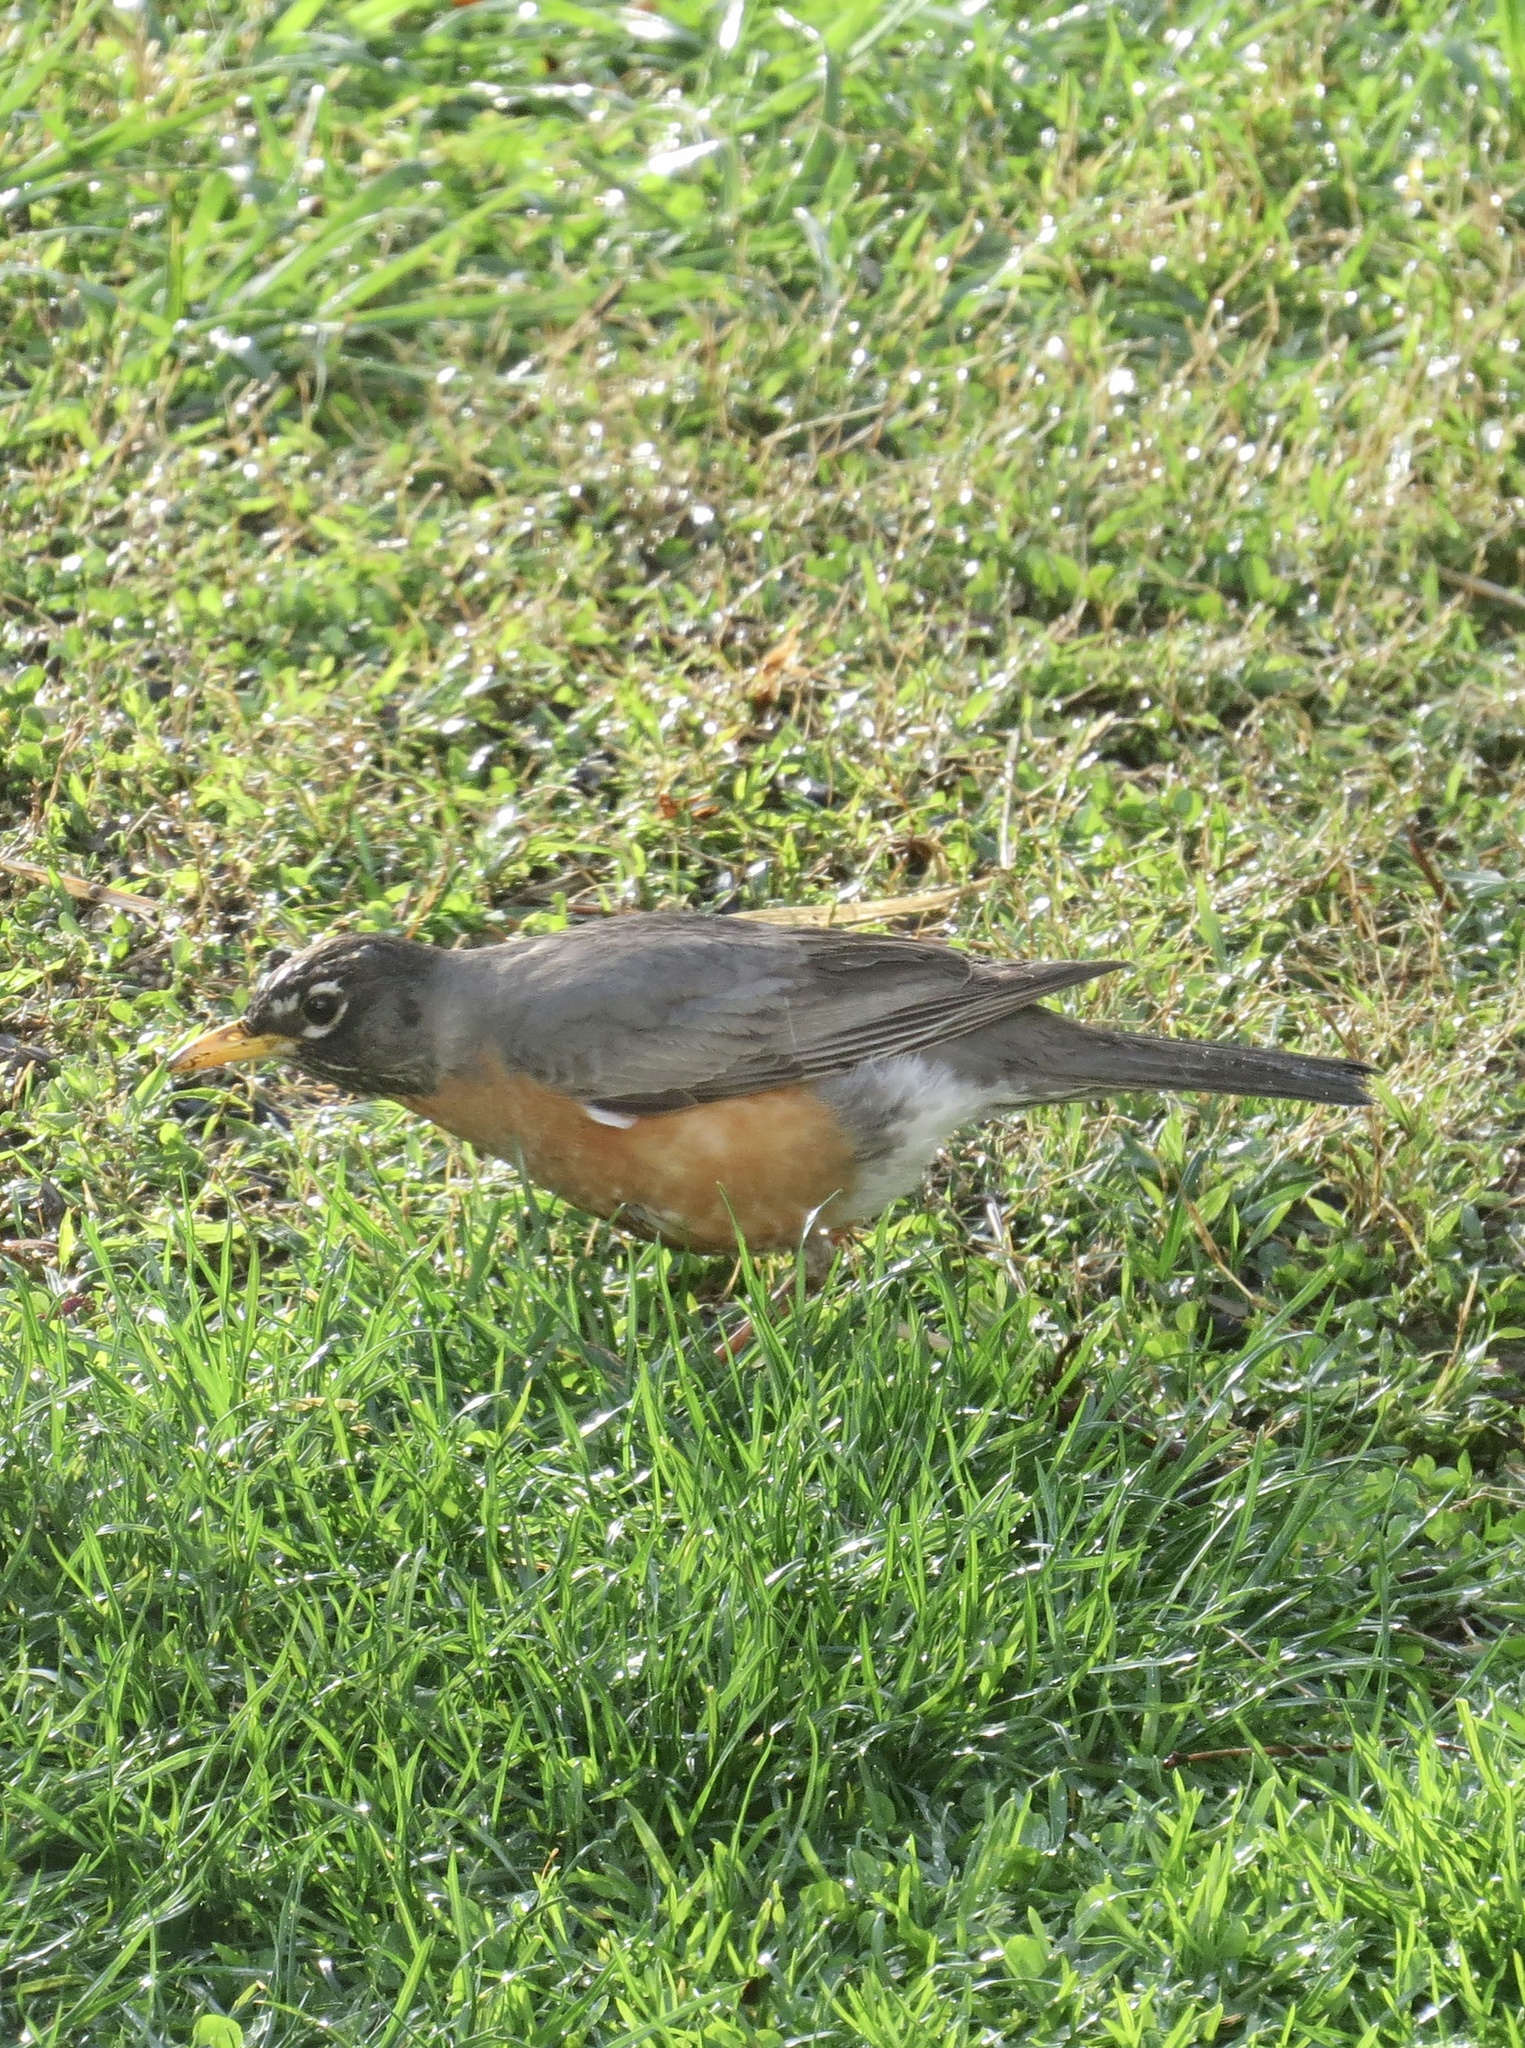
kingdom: Animalia
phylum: Chordata
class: Aves
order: Passeriformes
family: Turdidae
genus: Turdus
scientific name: Turdus migratorius
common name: American robin
